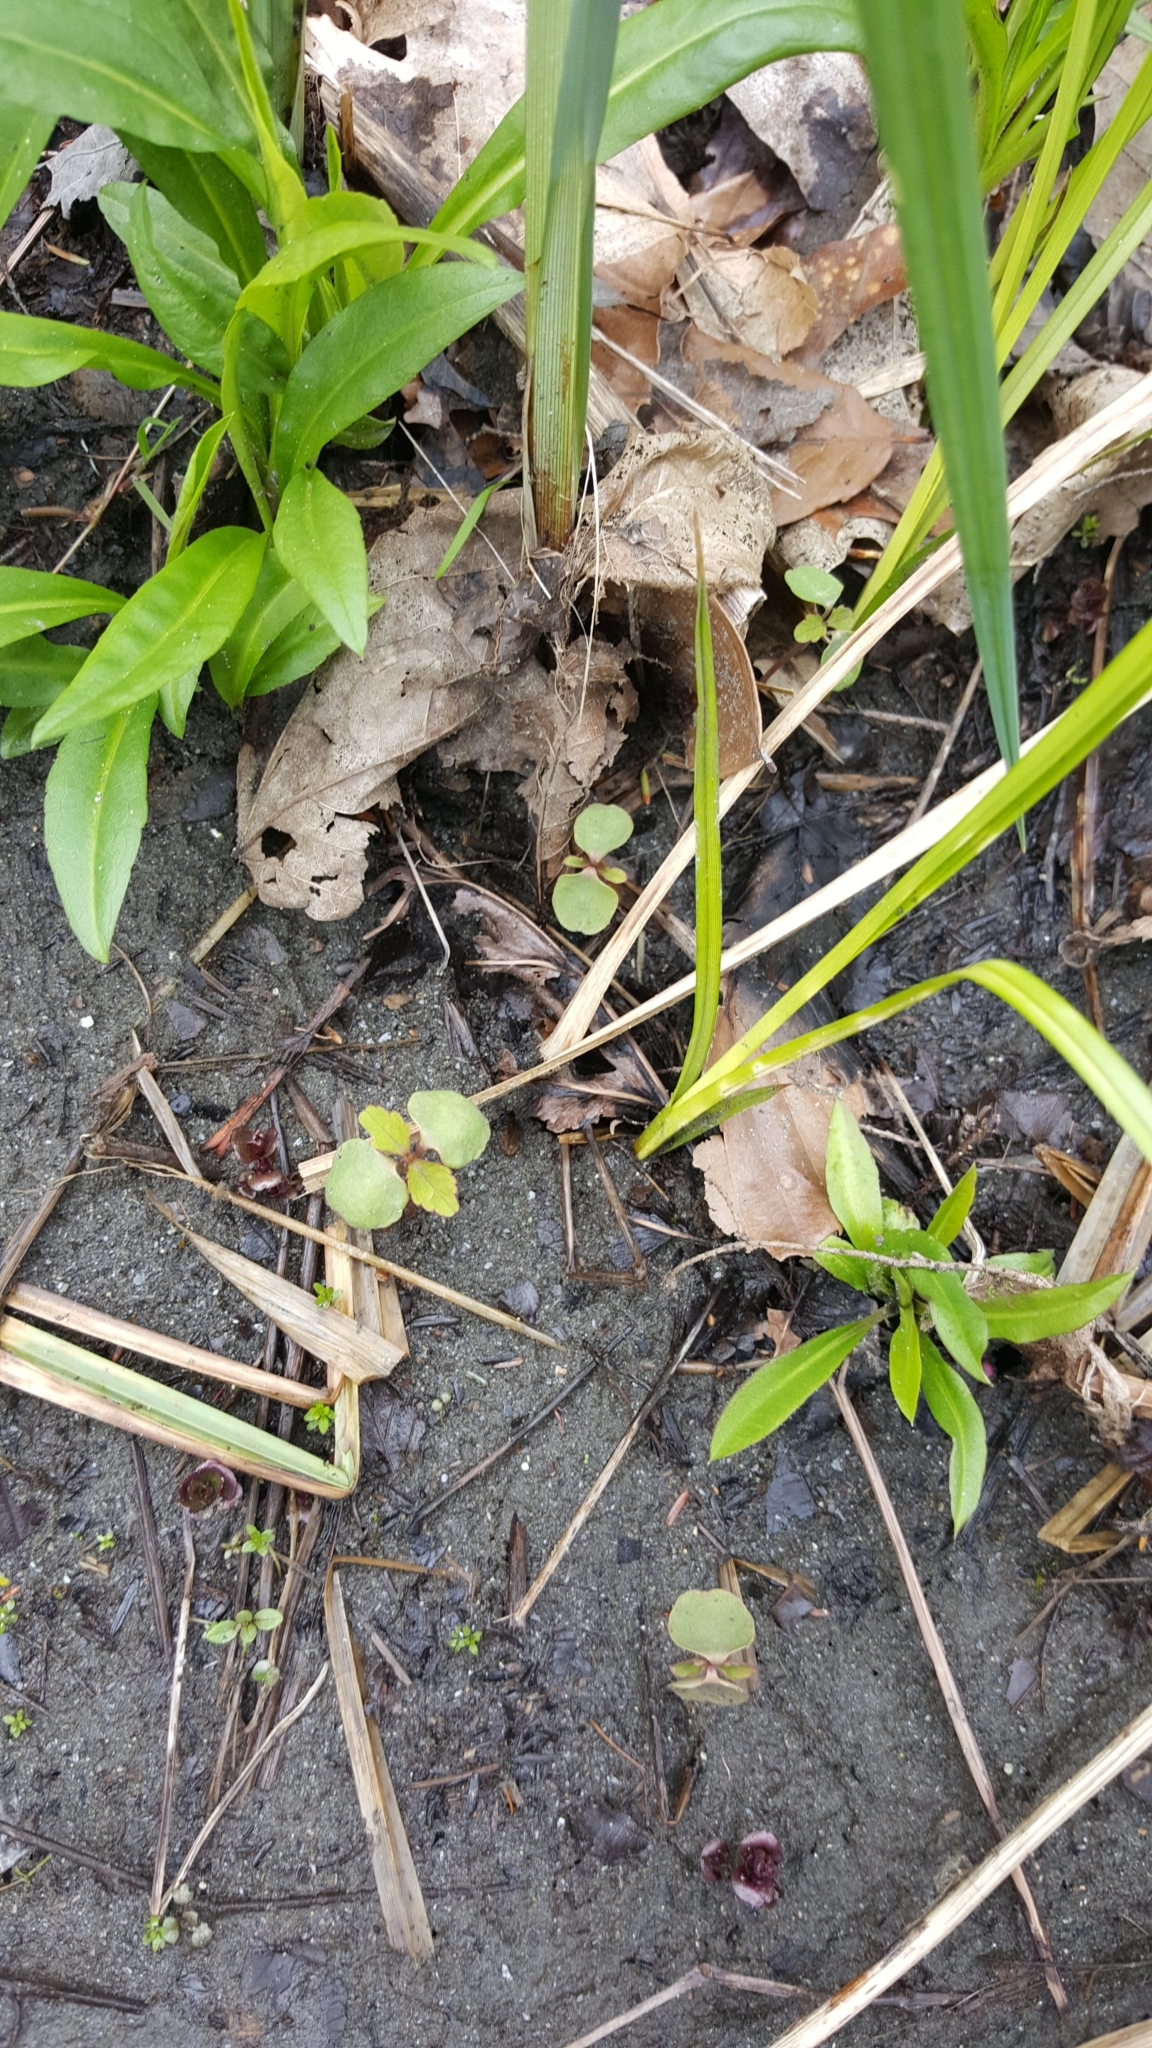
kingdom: Plantae
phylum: Tracheophyta
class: Magnoliopsida
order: Ericales
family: Balsaminaceae
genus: Impatiens
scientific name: Impatiens capensis
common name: Orange balsam
